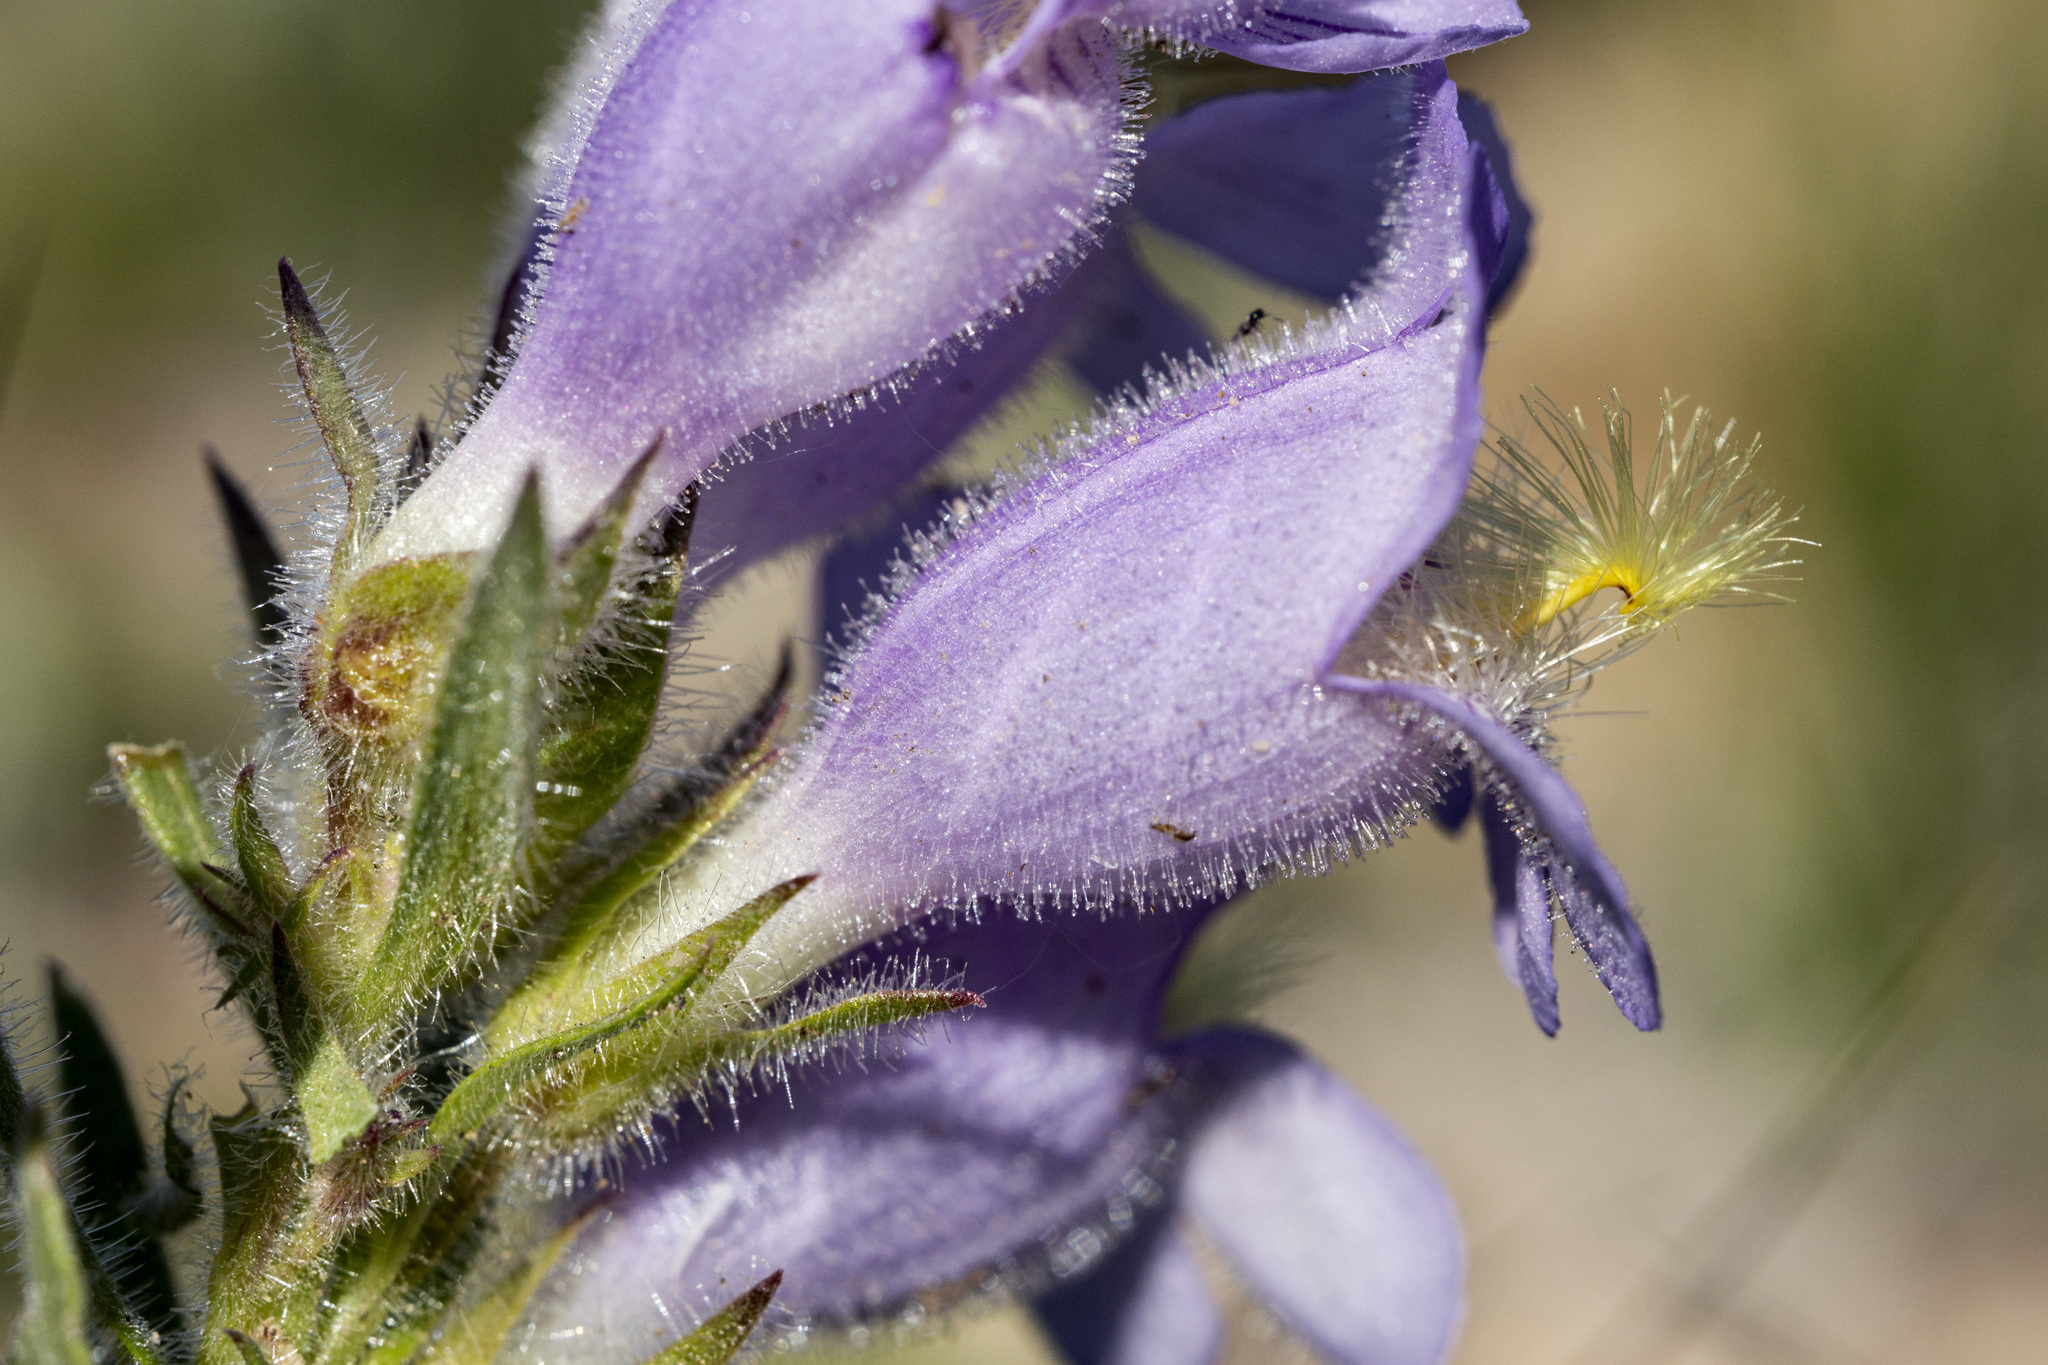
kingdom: Plantae
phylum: Tracheophyta
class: Magnoliopsida
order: Lamiales
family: Plantaginaceae
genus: Penstemon
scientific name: Penstemon eriantherus
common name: Crested beardtongue
